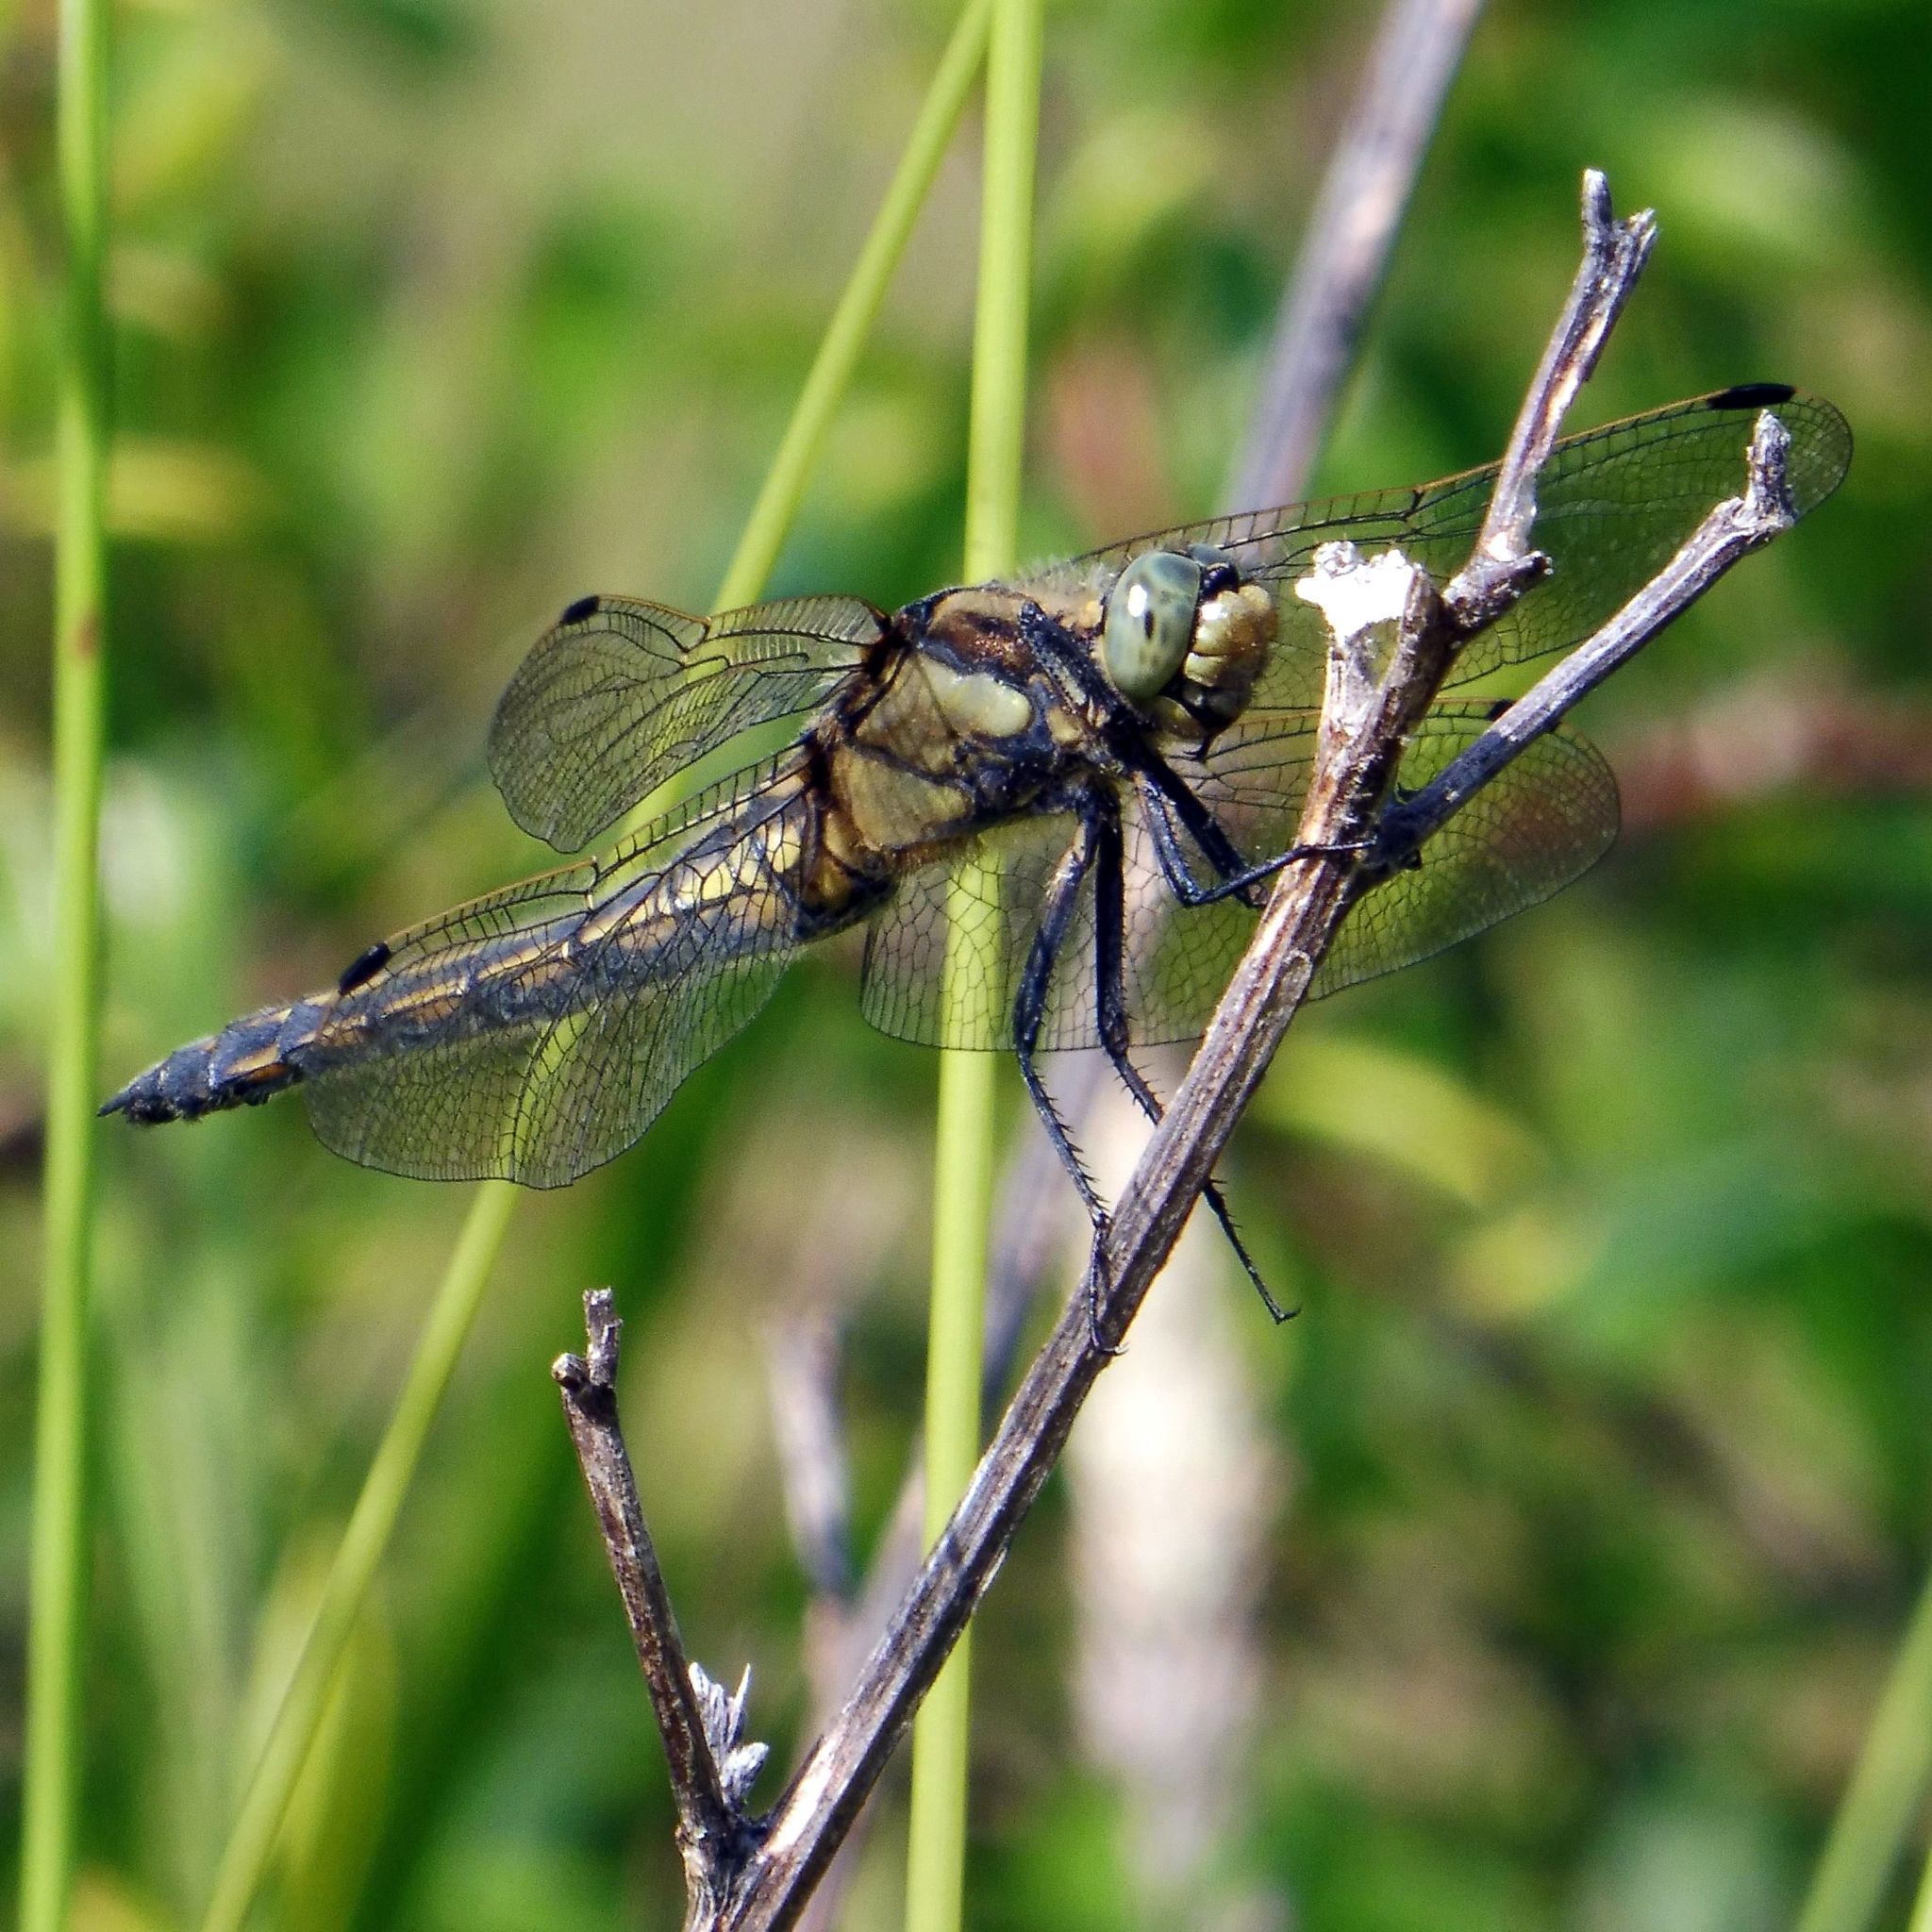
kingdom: Animalia
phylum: Arthropoda
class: Insecta
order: Odonata
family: Libellulidae
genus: Orthetrum
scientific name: Orthetrum cancellatum
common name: Black-tailed skimmer
